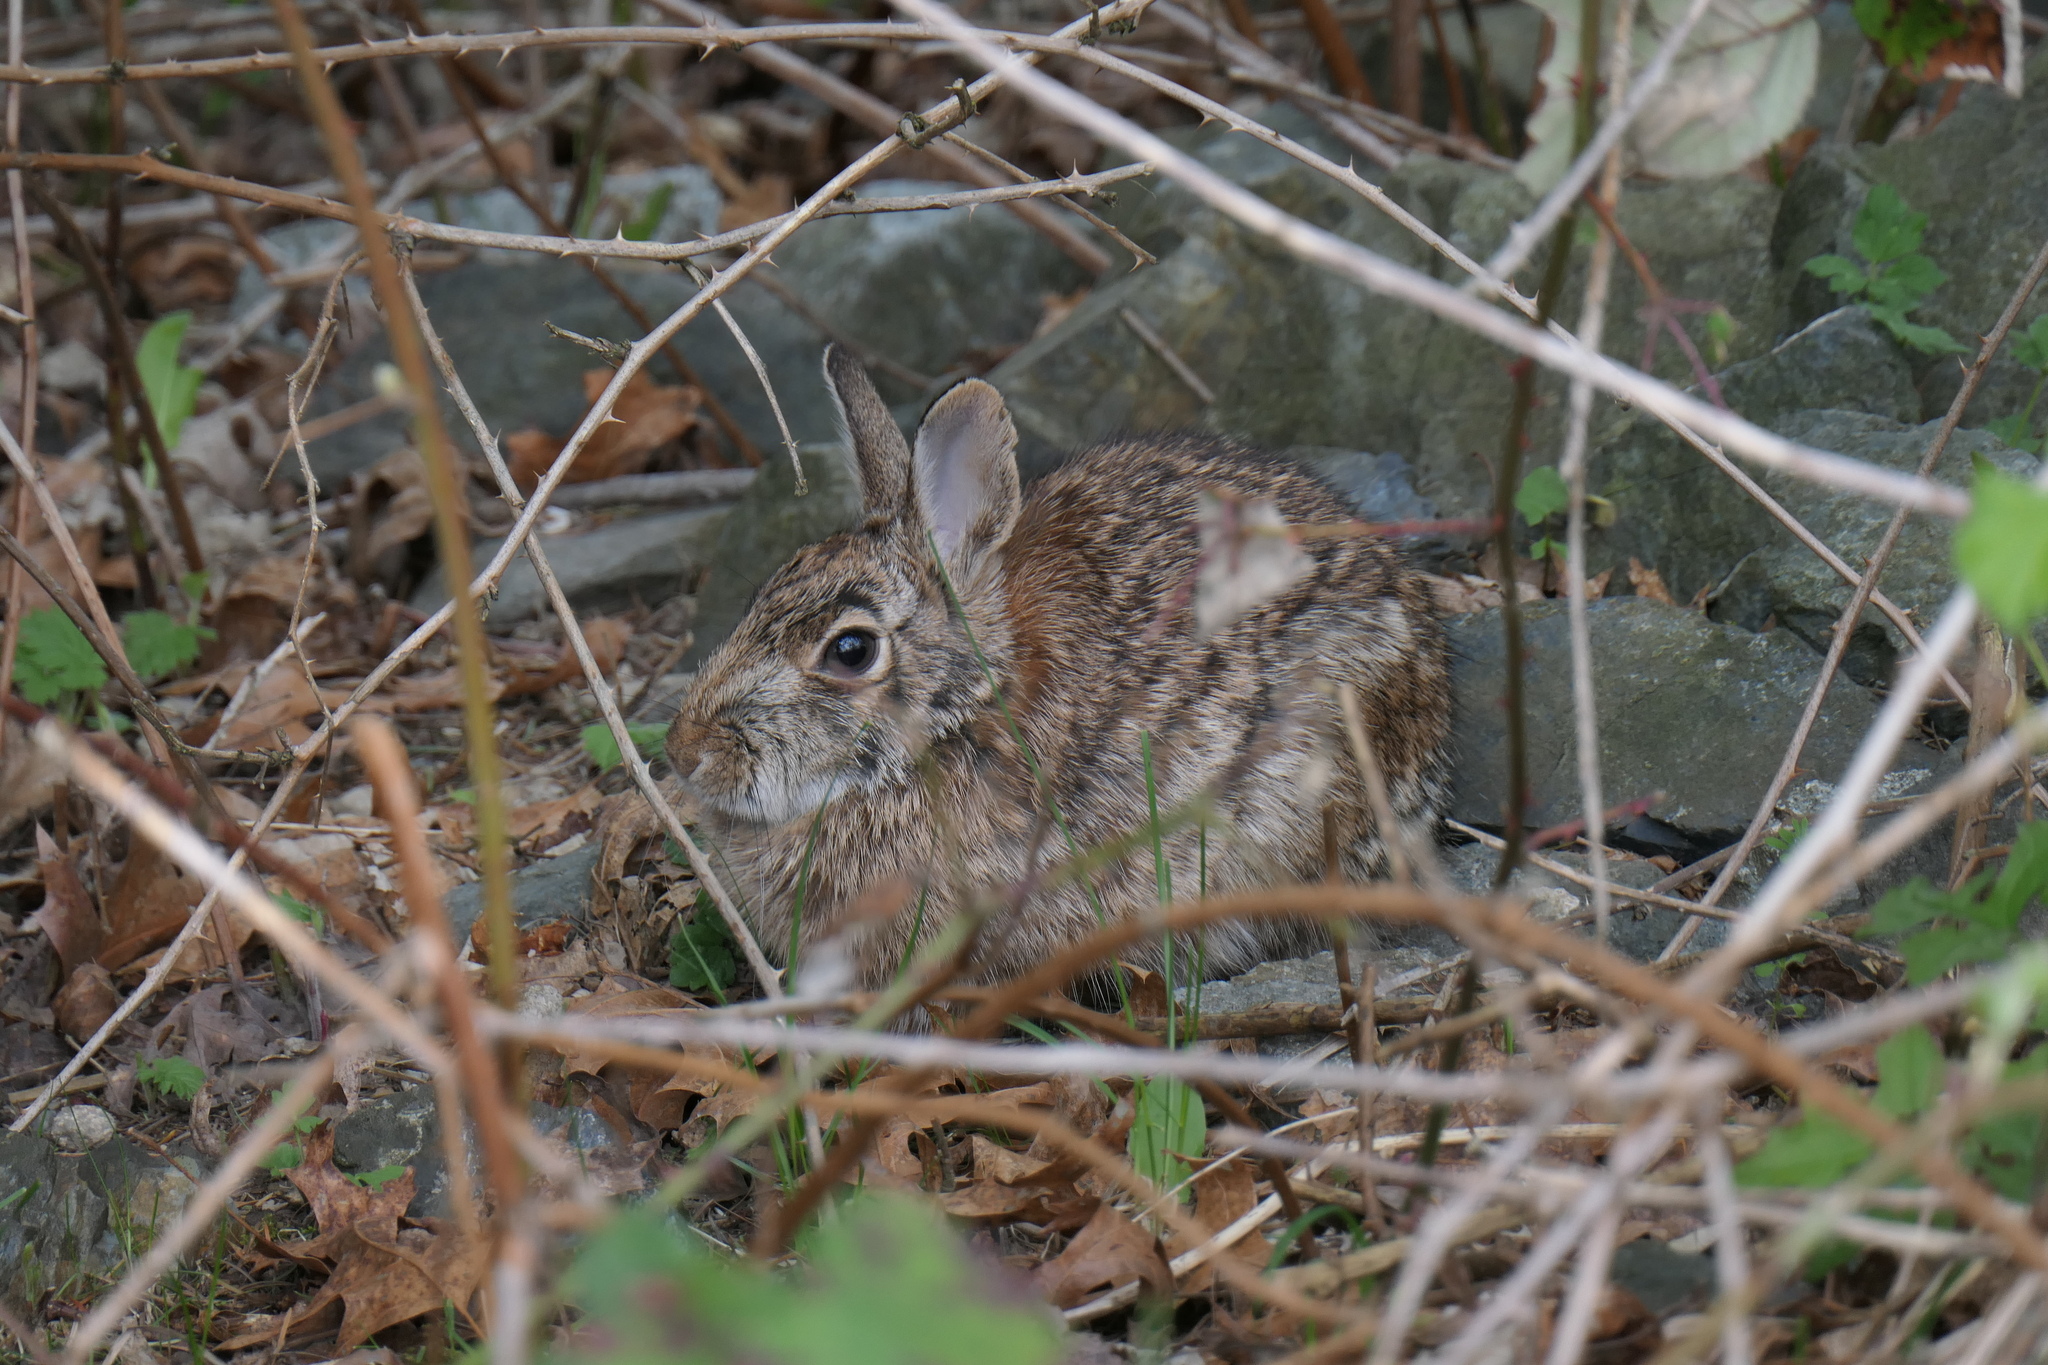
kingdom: Animalia
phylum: Chordata
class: Mammalia
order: Lagomorpha
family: Leporidae
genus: Sylvilagus
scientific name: Sylvilagus floridanus
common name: Eastern cottontail
